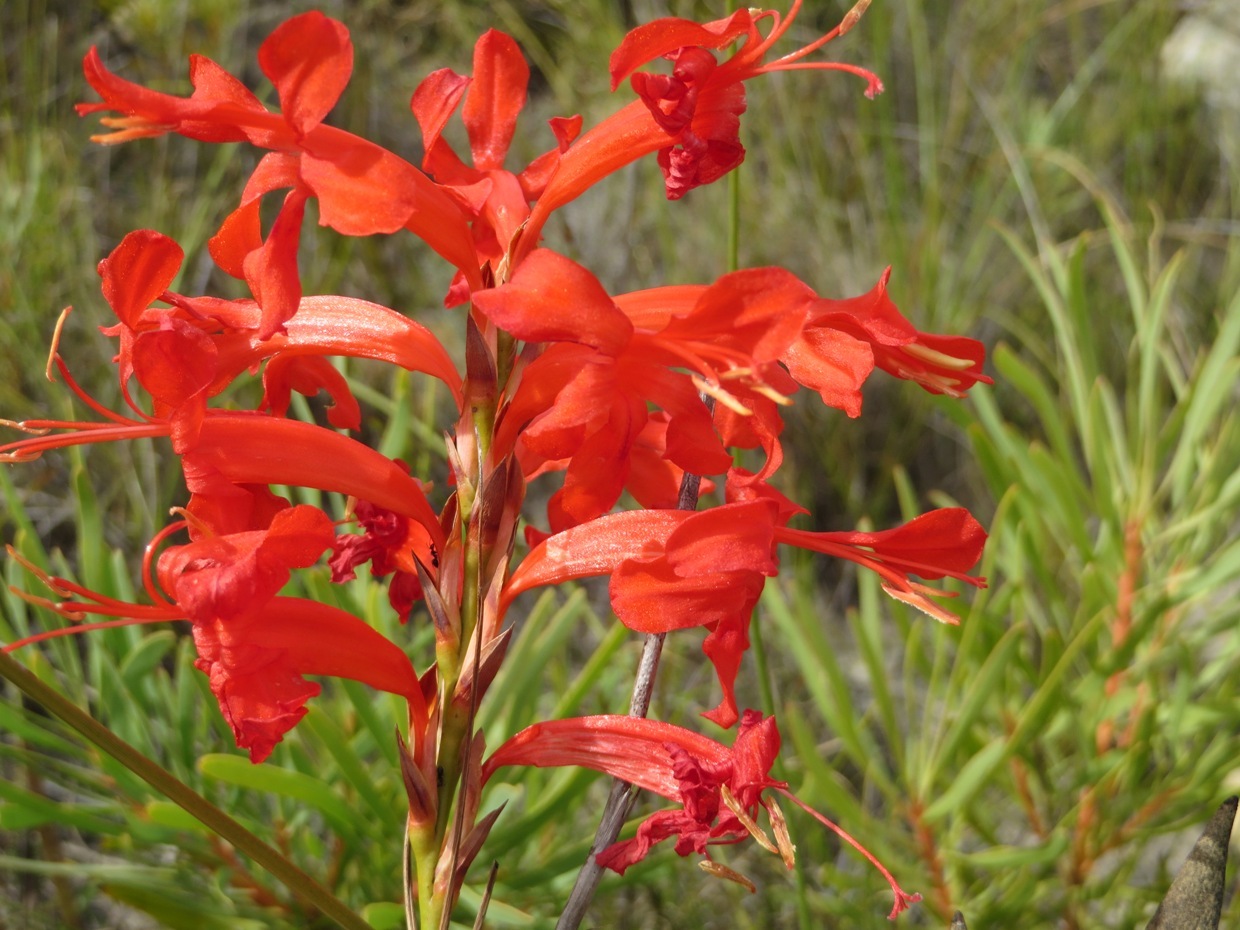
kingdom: Plantae
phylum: Tracheophyta
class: Liliopsida
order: Asparagales
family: Iridaceae
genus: Tritoniopsis
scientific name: Tritoniopsis triticea
